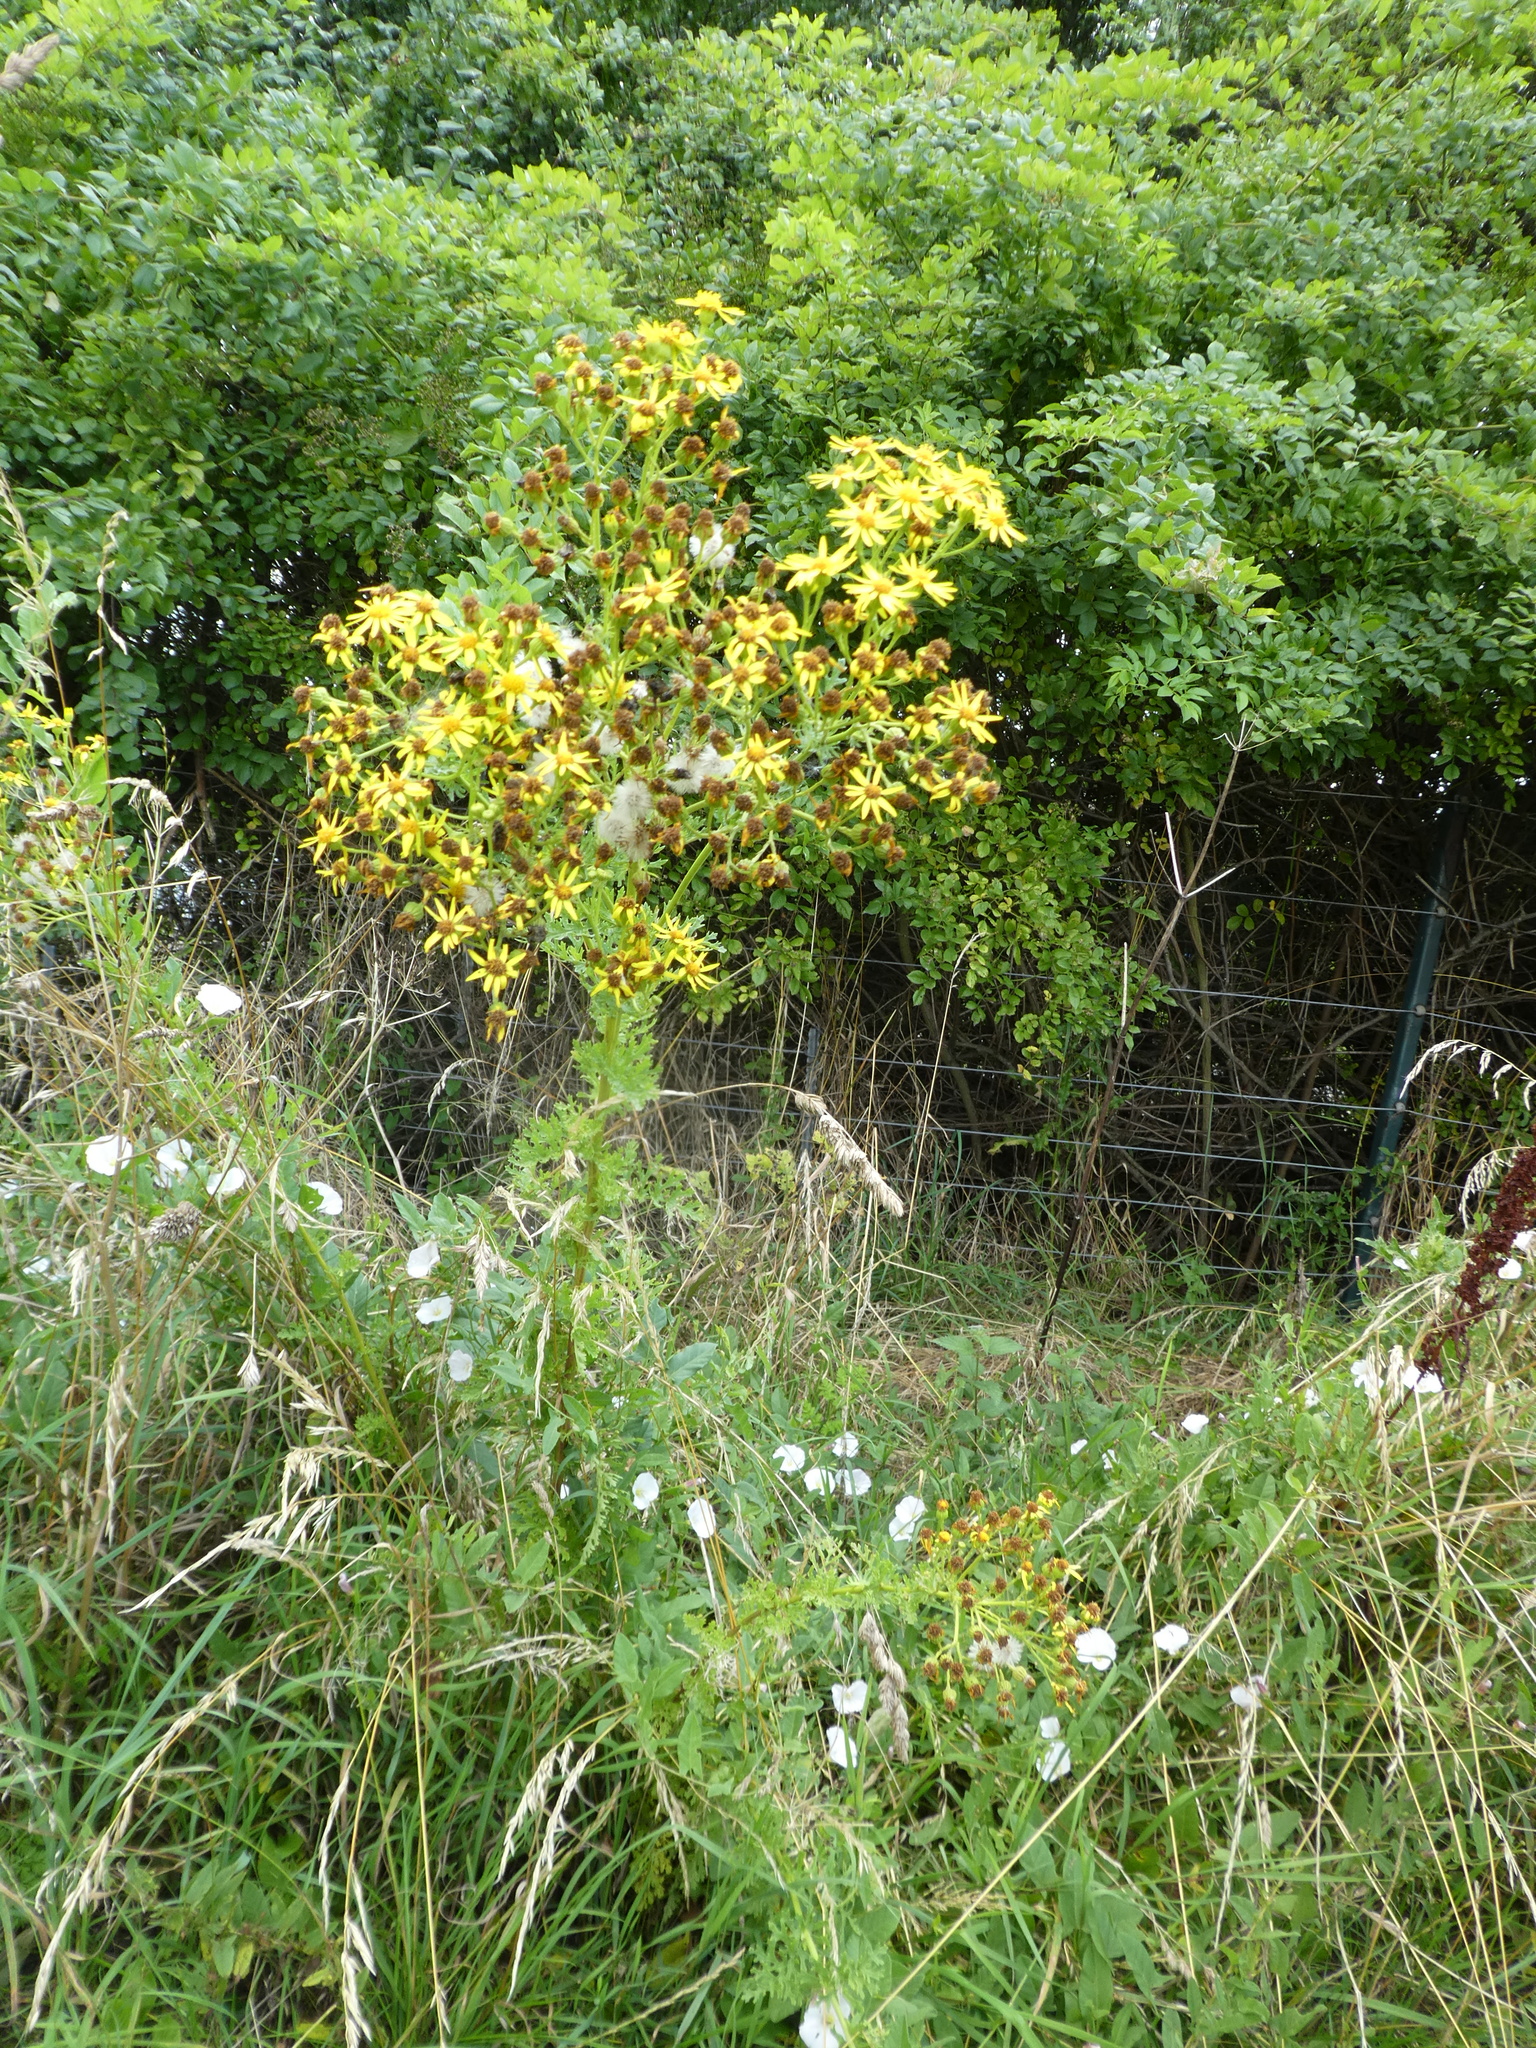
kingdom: Plantae
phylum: Tracheophyta
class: Magnoliopsida
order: Asterales
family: Asteraceae
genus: Jacobaea
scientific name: Jacobaea vulgaris
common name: Stinking willie
